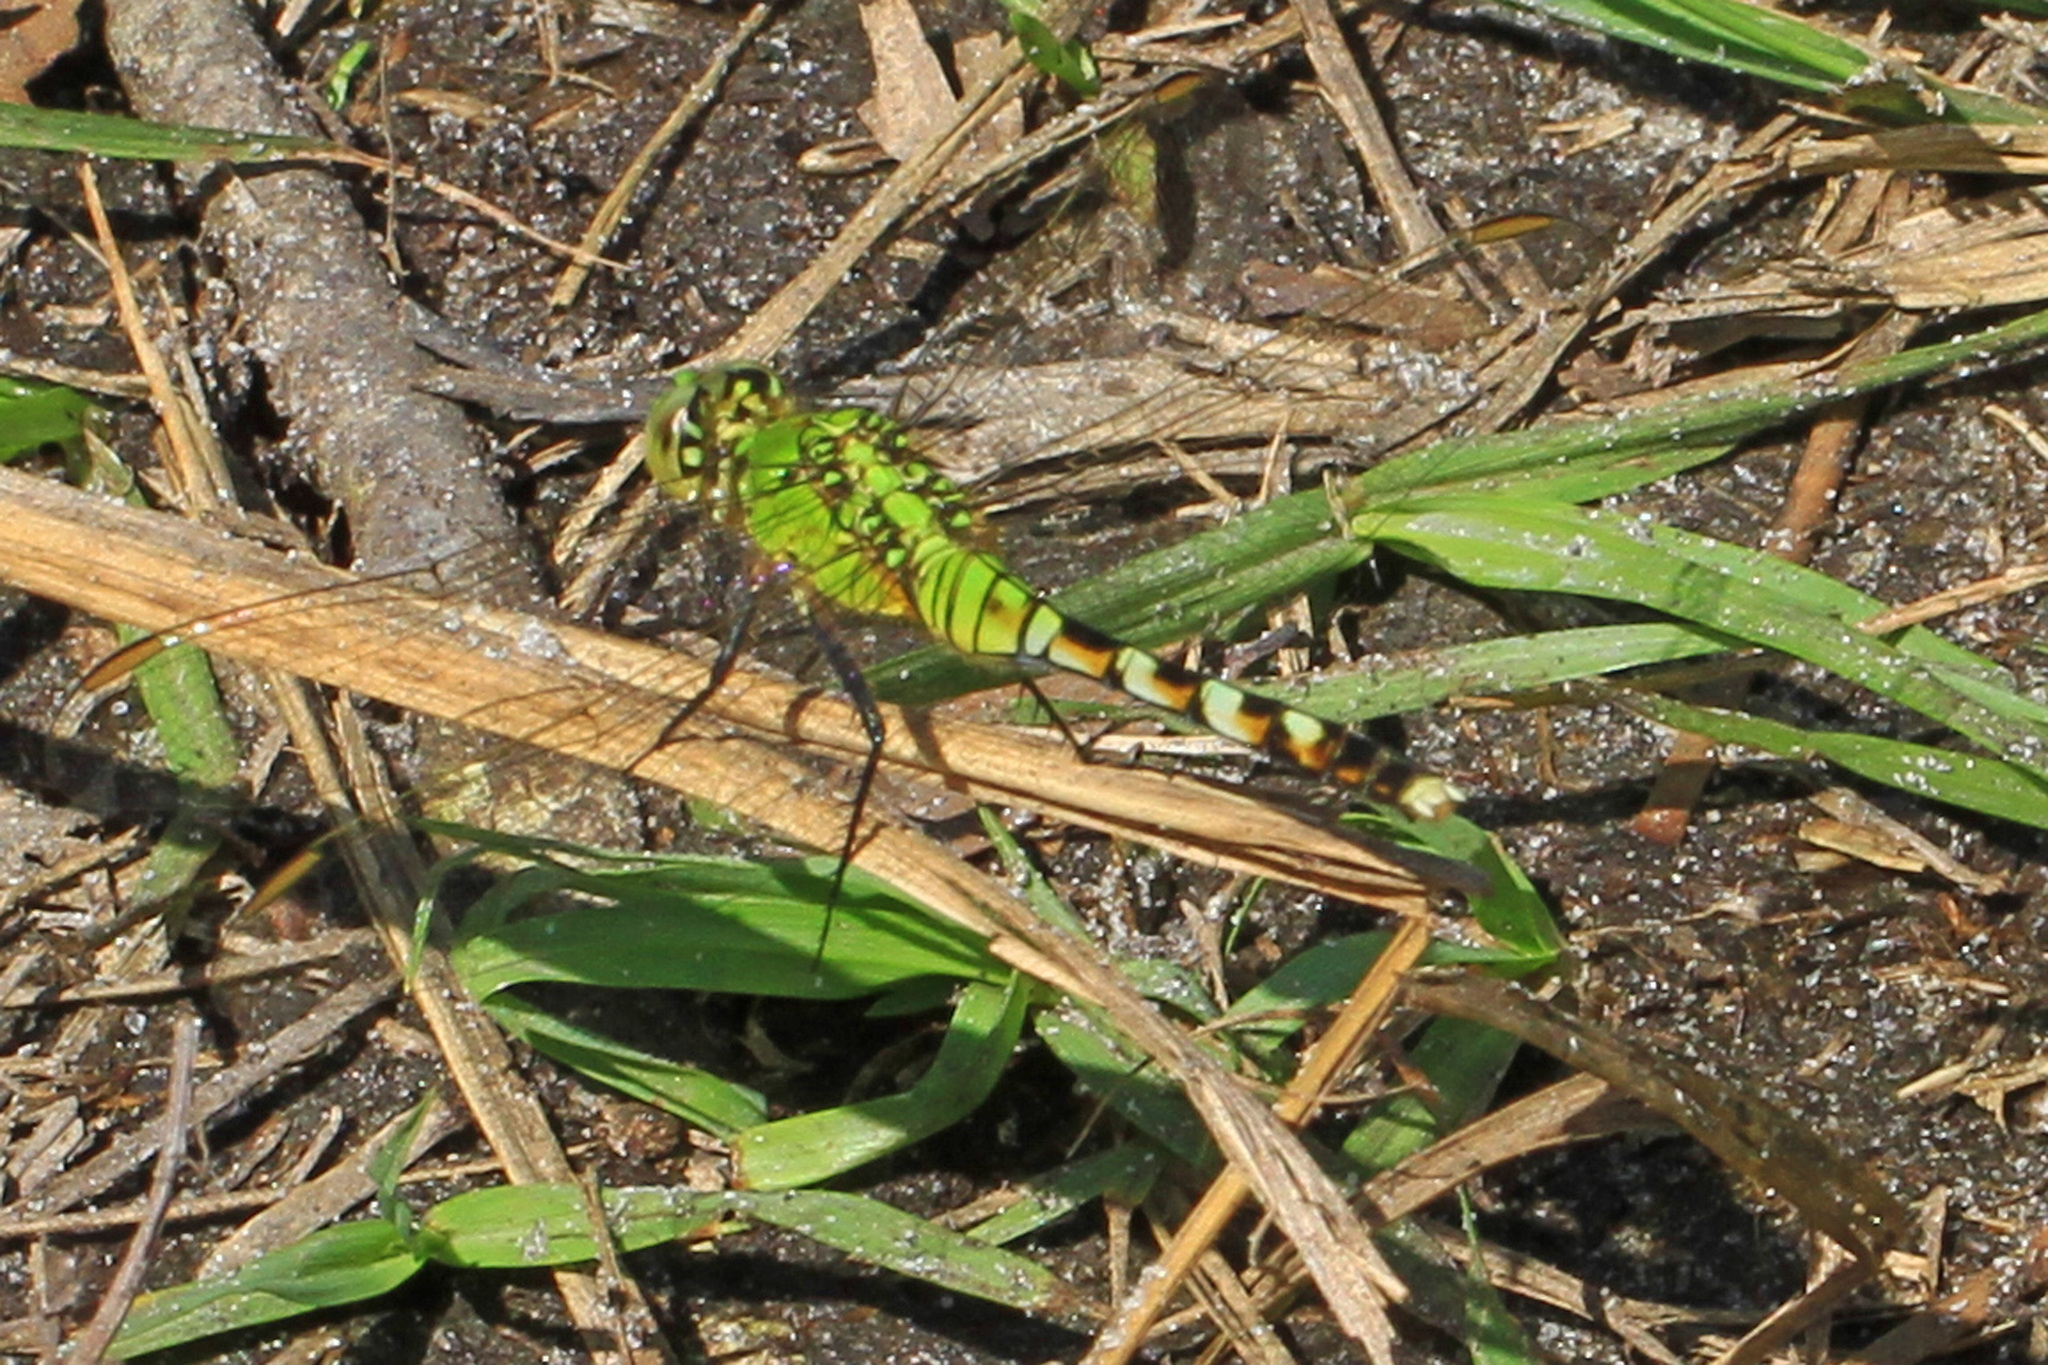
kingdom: Animalia
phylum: Arthropoda
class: Insecta
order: Odonata
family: Libellulidae
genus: Erythemis
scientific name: Erythemis simplicicollis
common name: Eastern pondhawk
